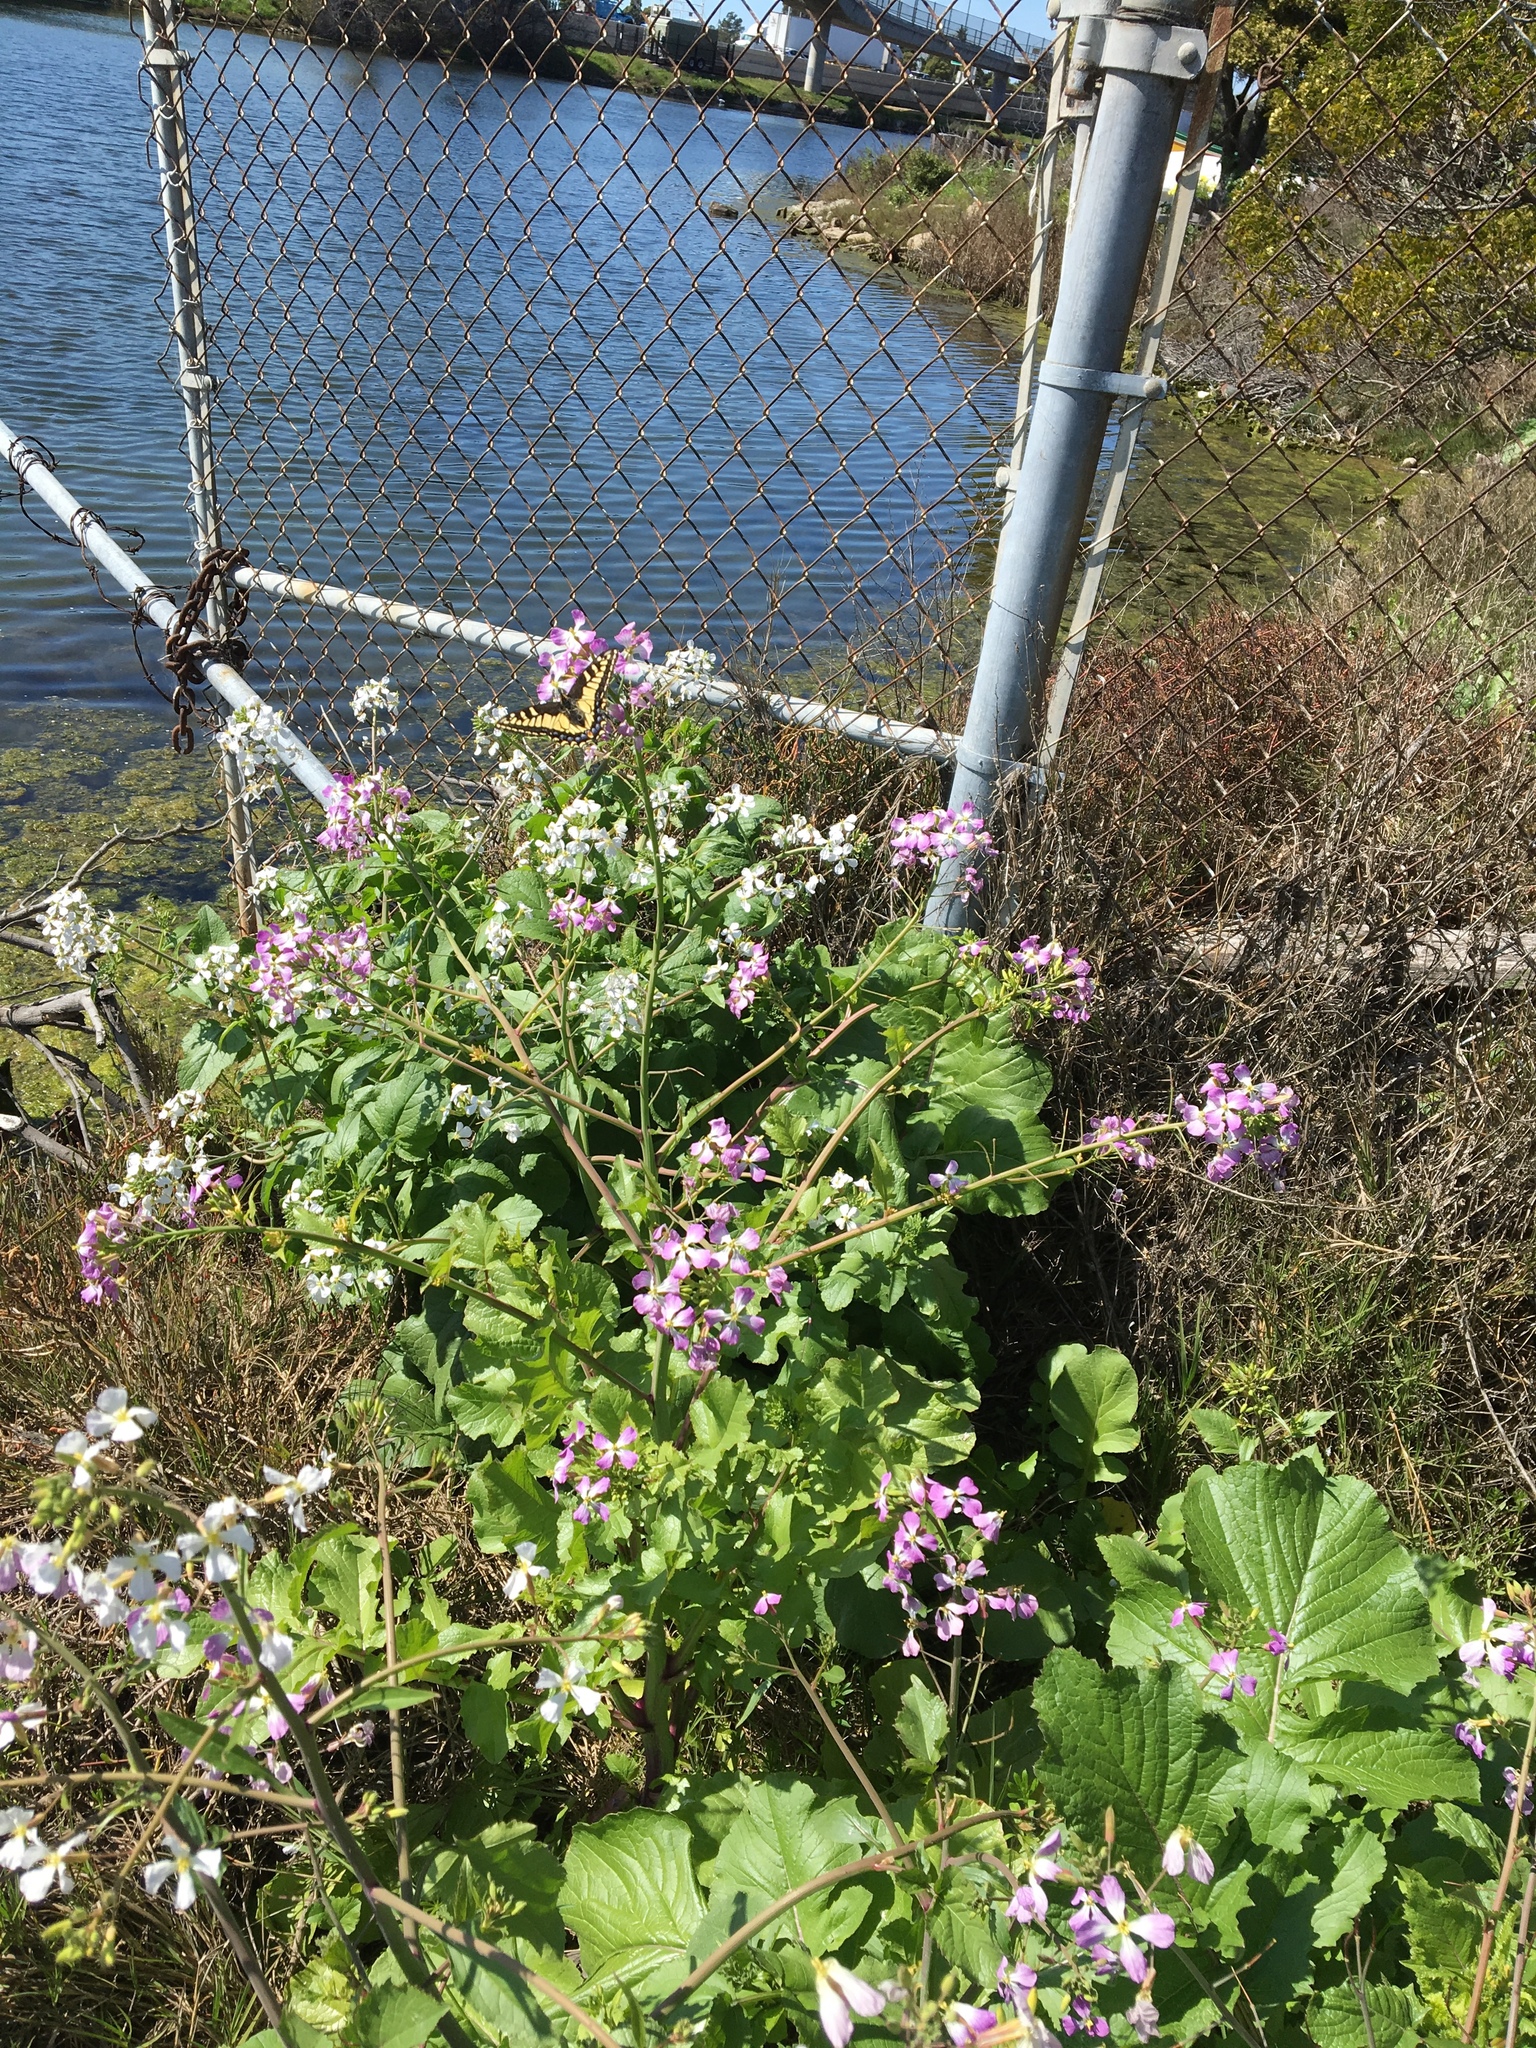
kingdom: Animalia
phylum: Arthropoda
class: Insecta
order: Lepidoptera
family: Papilionidae
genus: Papilio
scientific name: Papilio zelicaon
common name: Anise swallowtail
